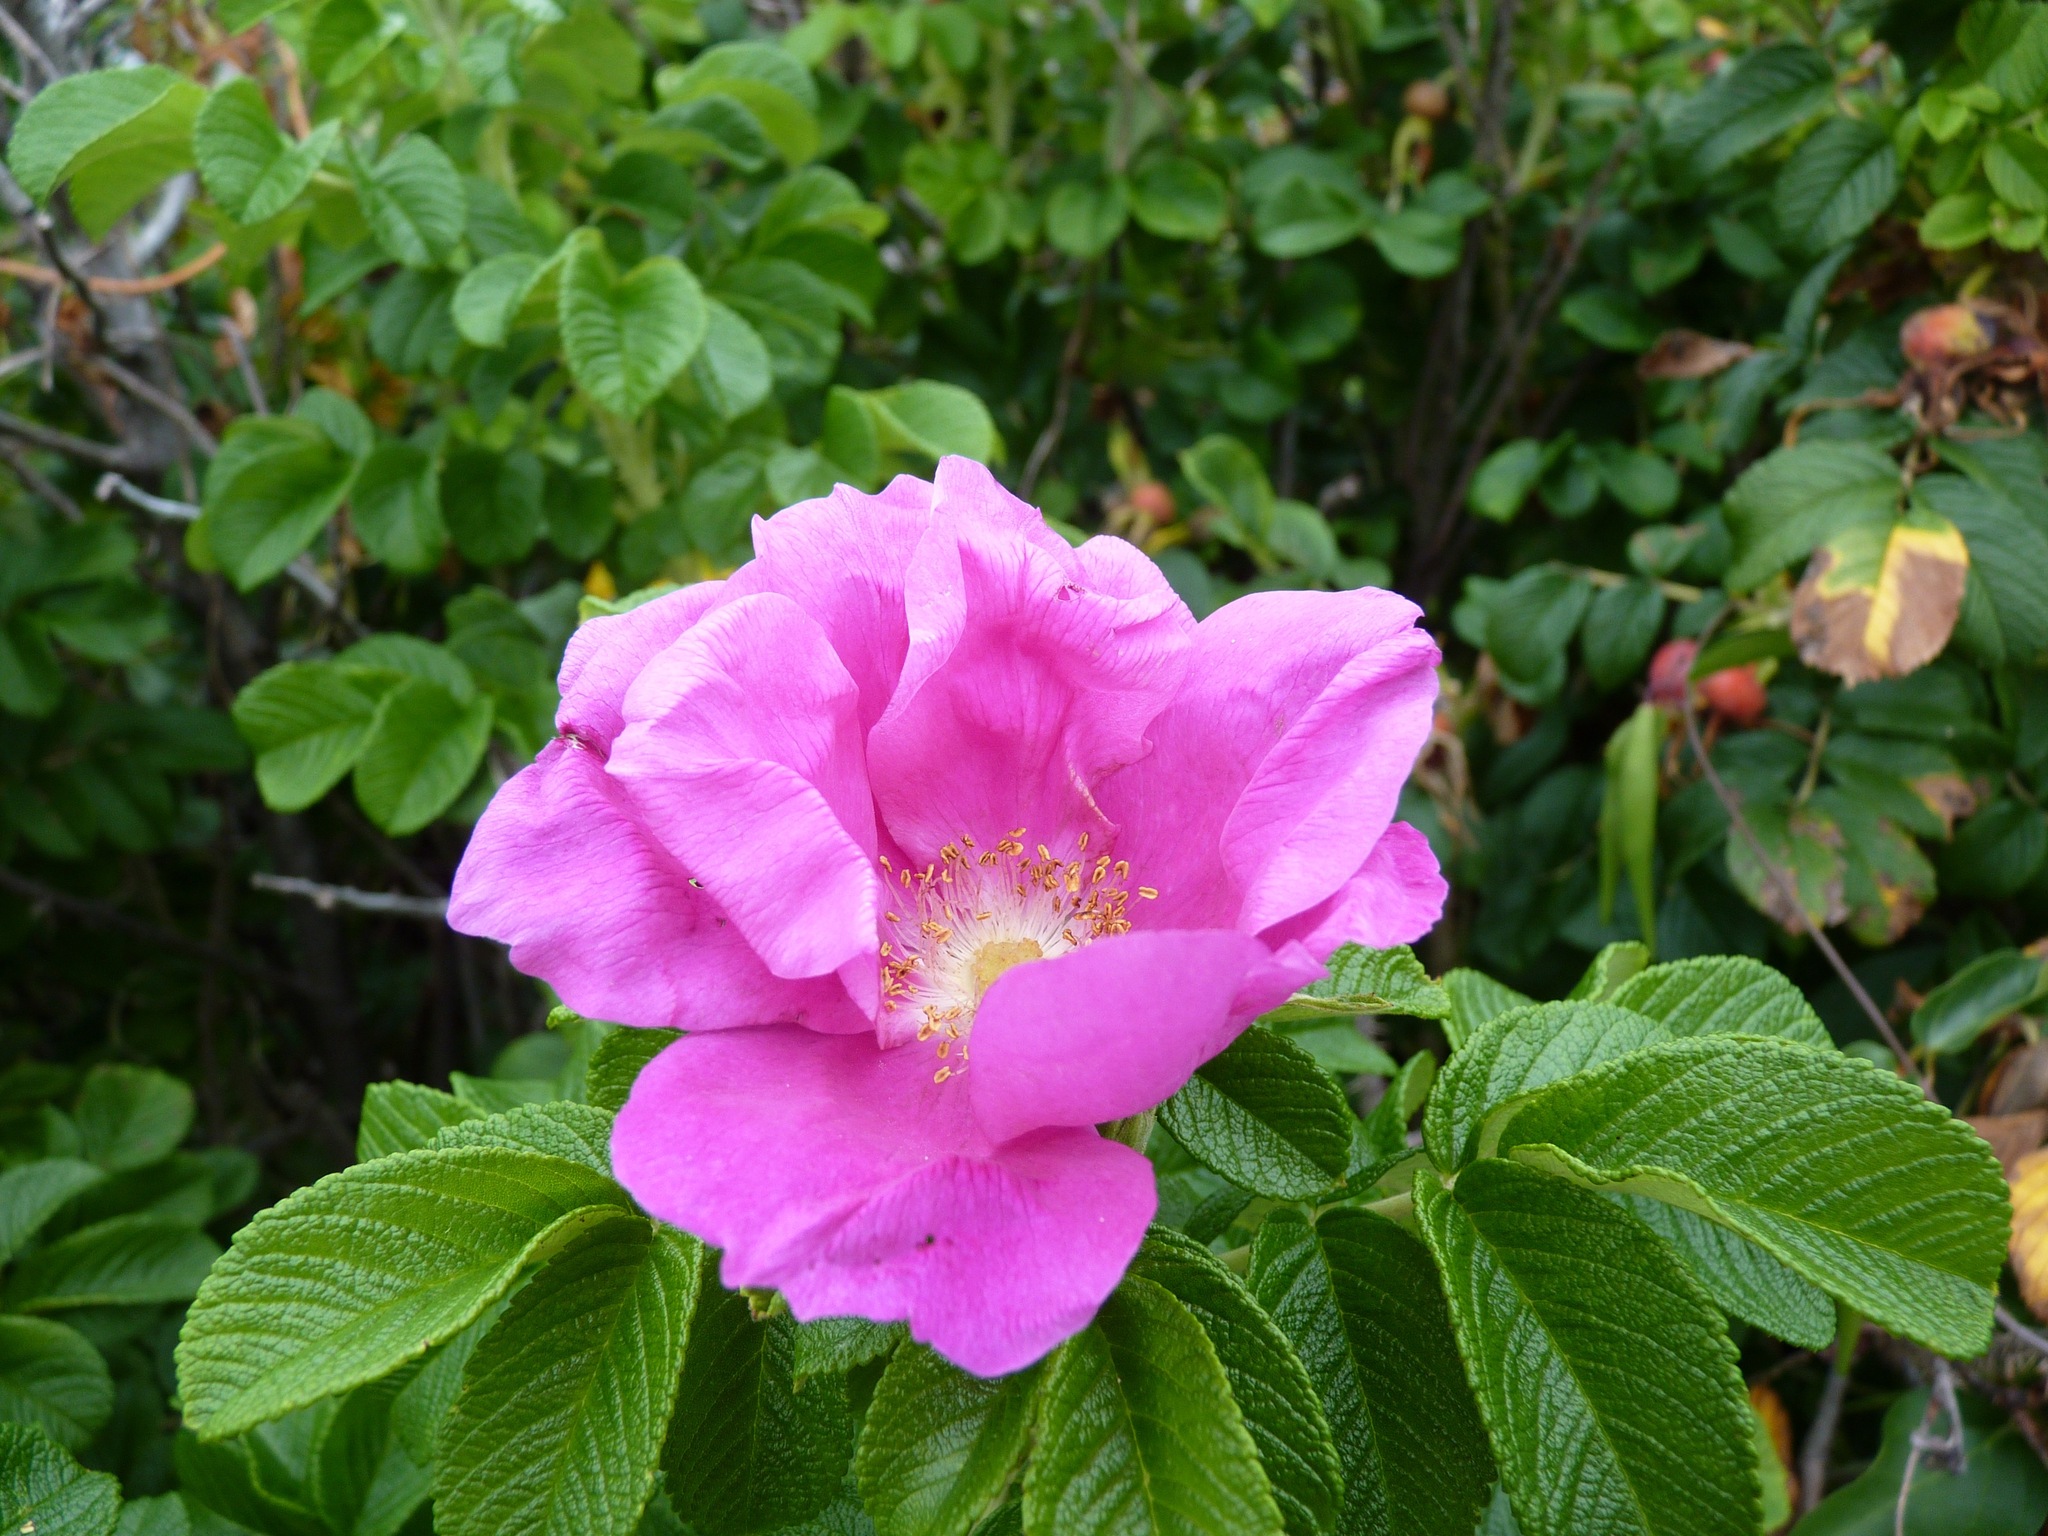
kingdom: Plantae
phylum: Tracheophyta
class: Magnoliopsida
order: Rosales
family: Rosaceae
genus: Rosa
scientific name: Rosa rugosa
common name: Japanese rose
